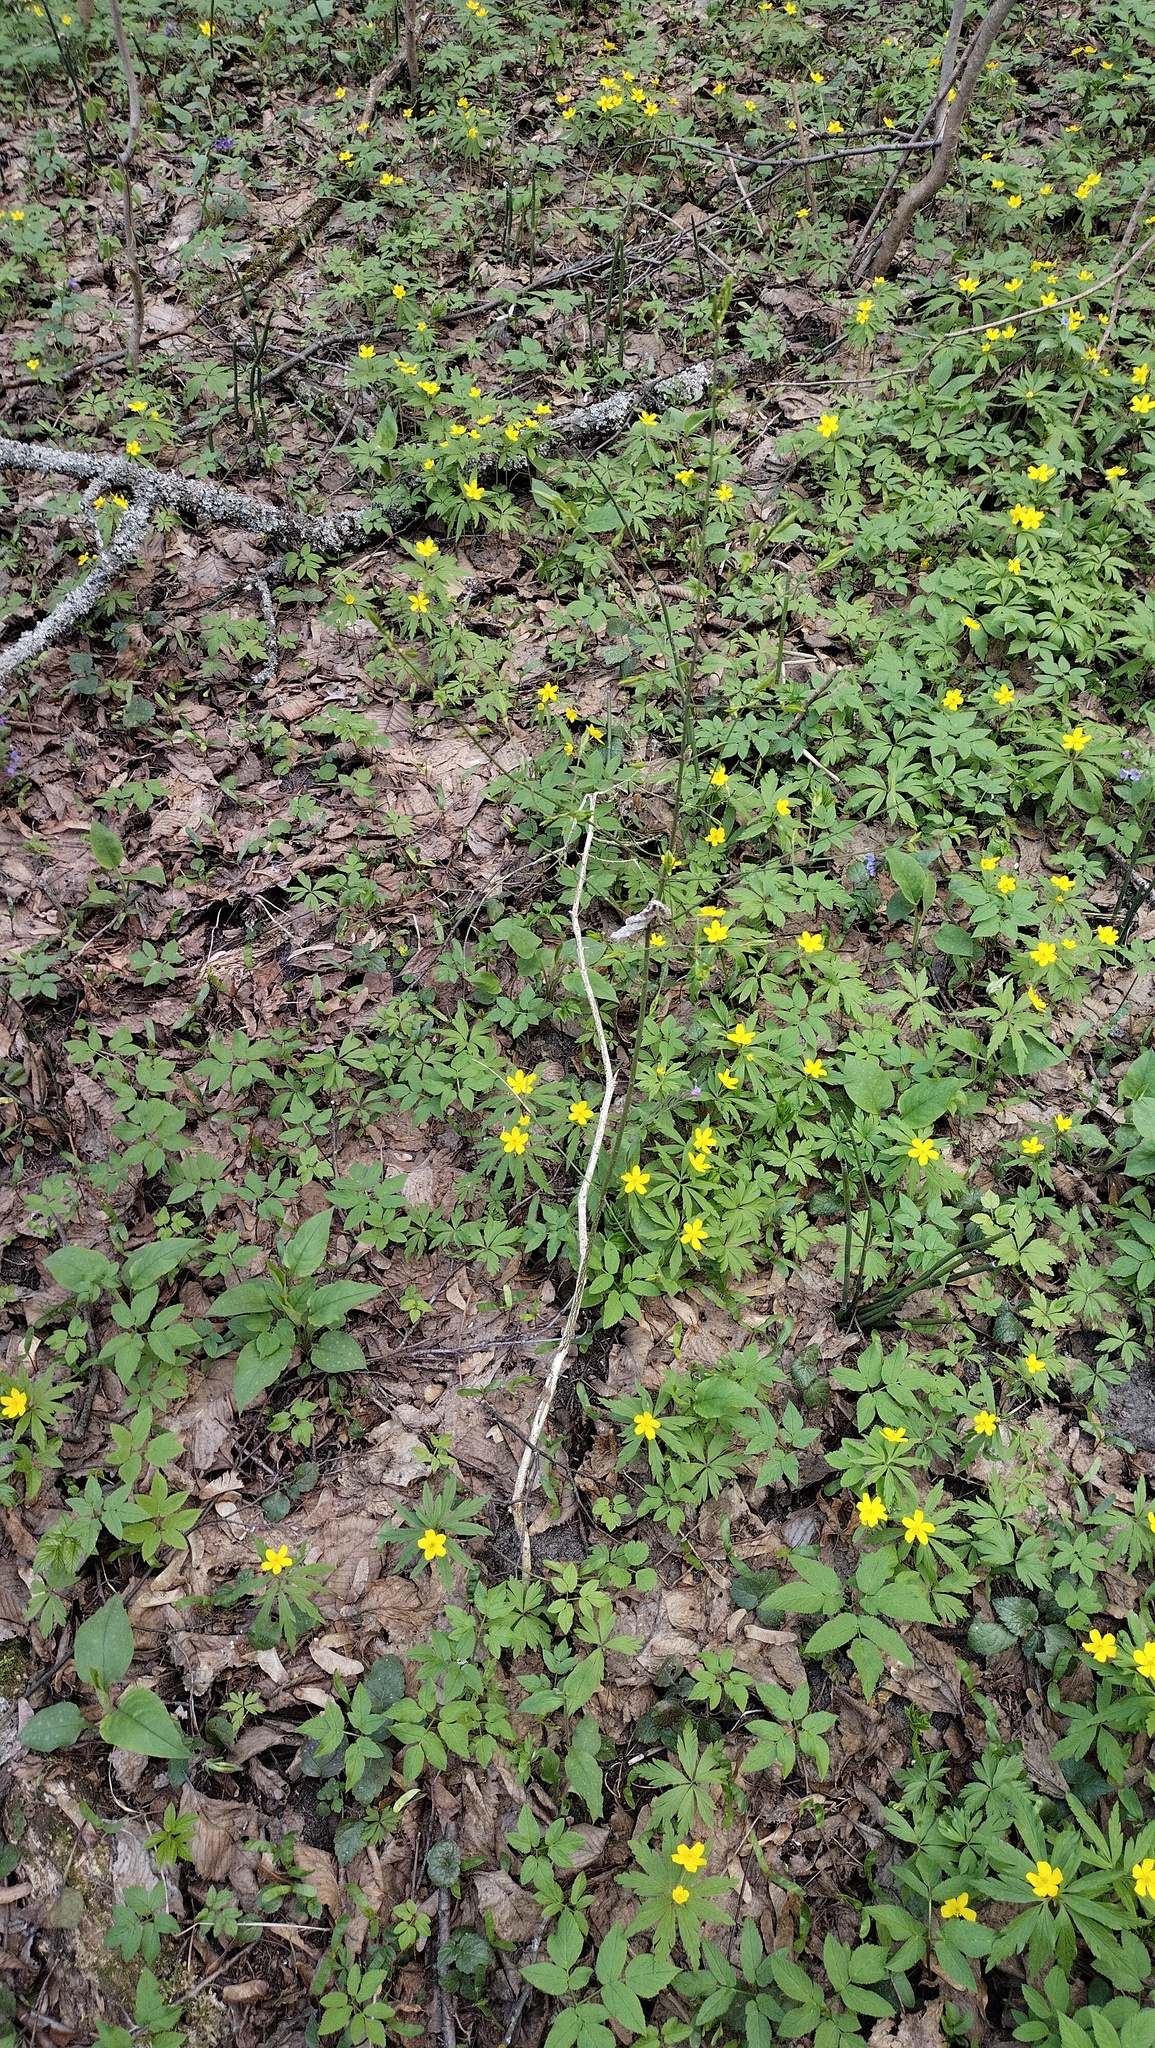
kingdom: Plantae
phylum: Tracheophyta
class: Magnoliopsida
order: Ranunculales
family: Ranunculaceae
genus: Anemone
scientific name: Anemone ranunculoides
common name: Yellow anemone
